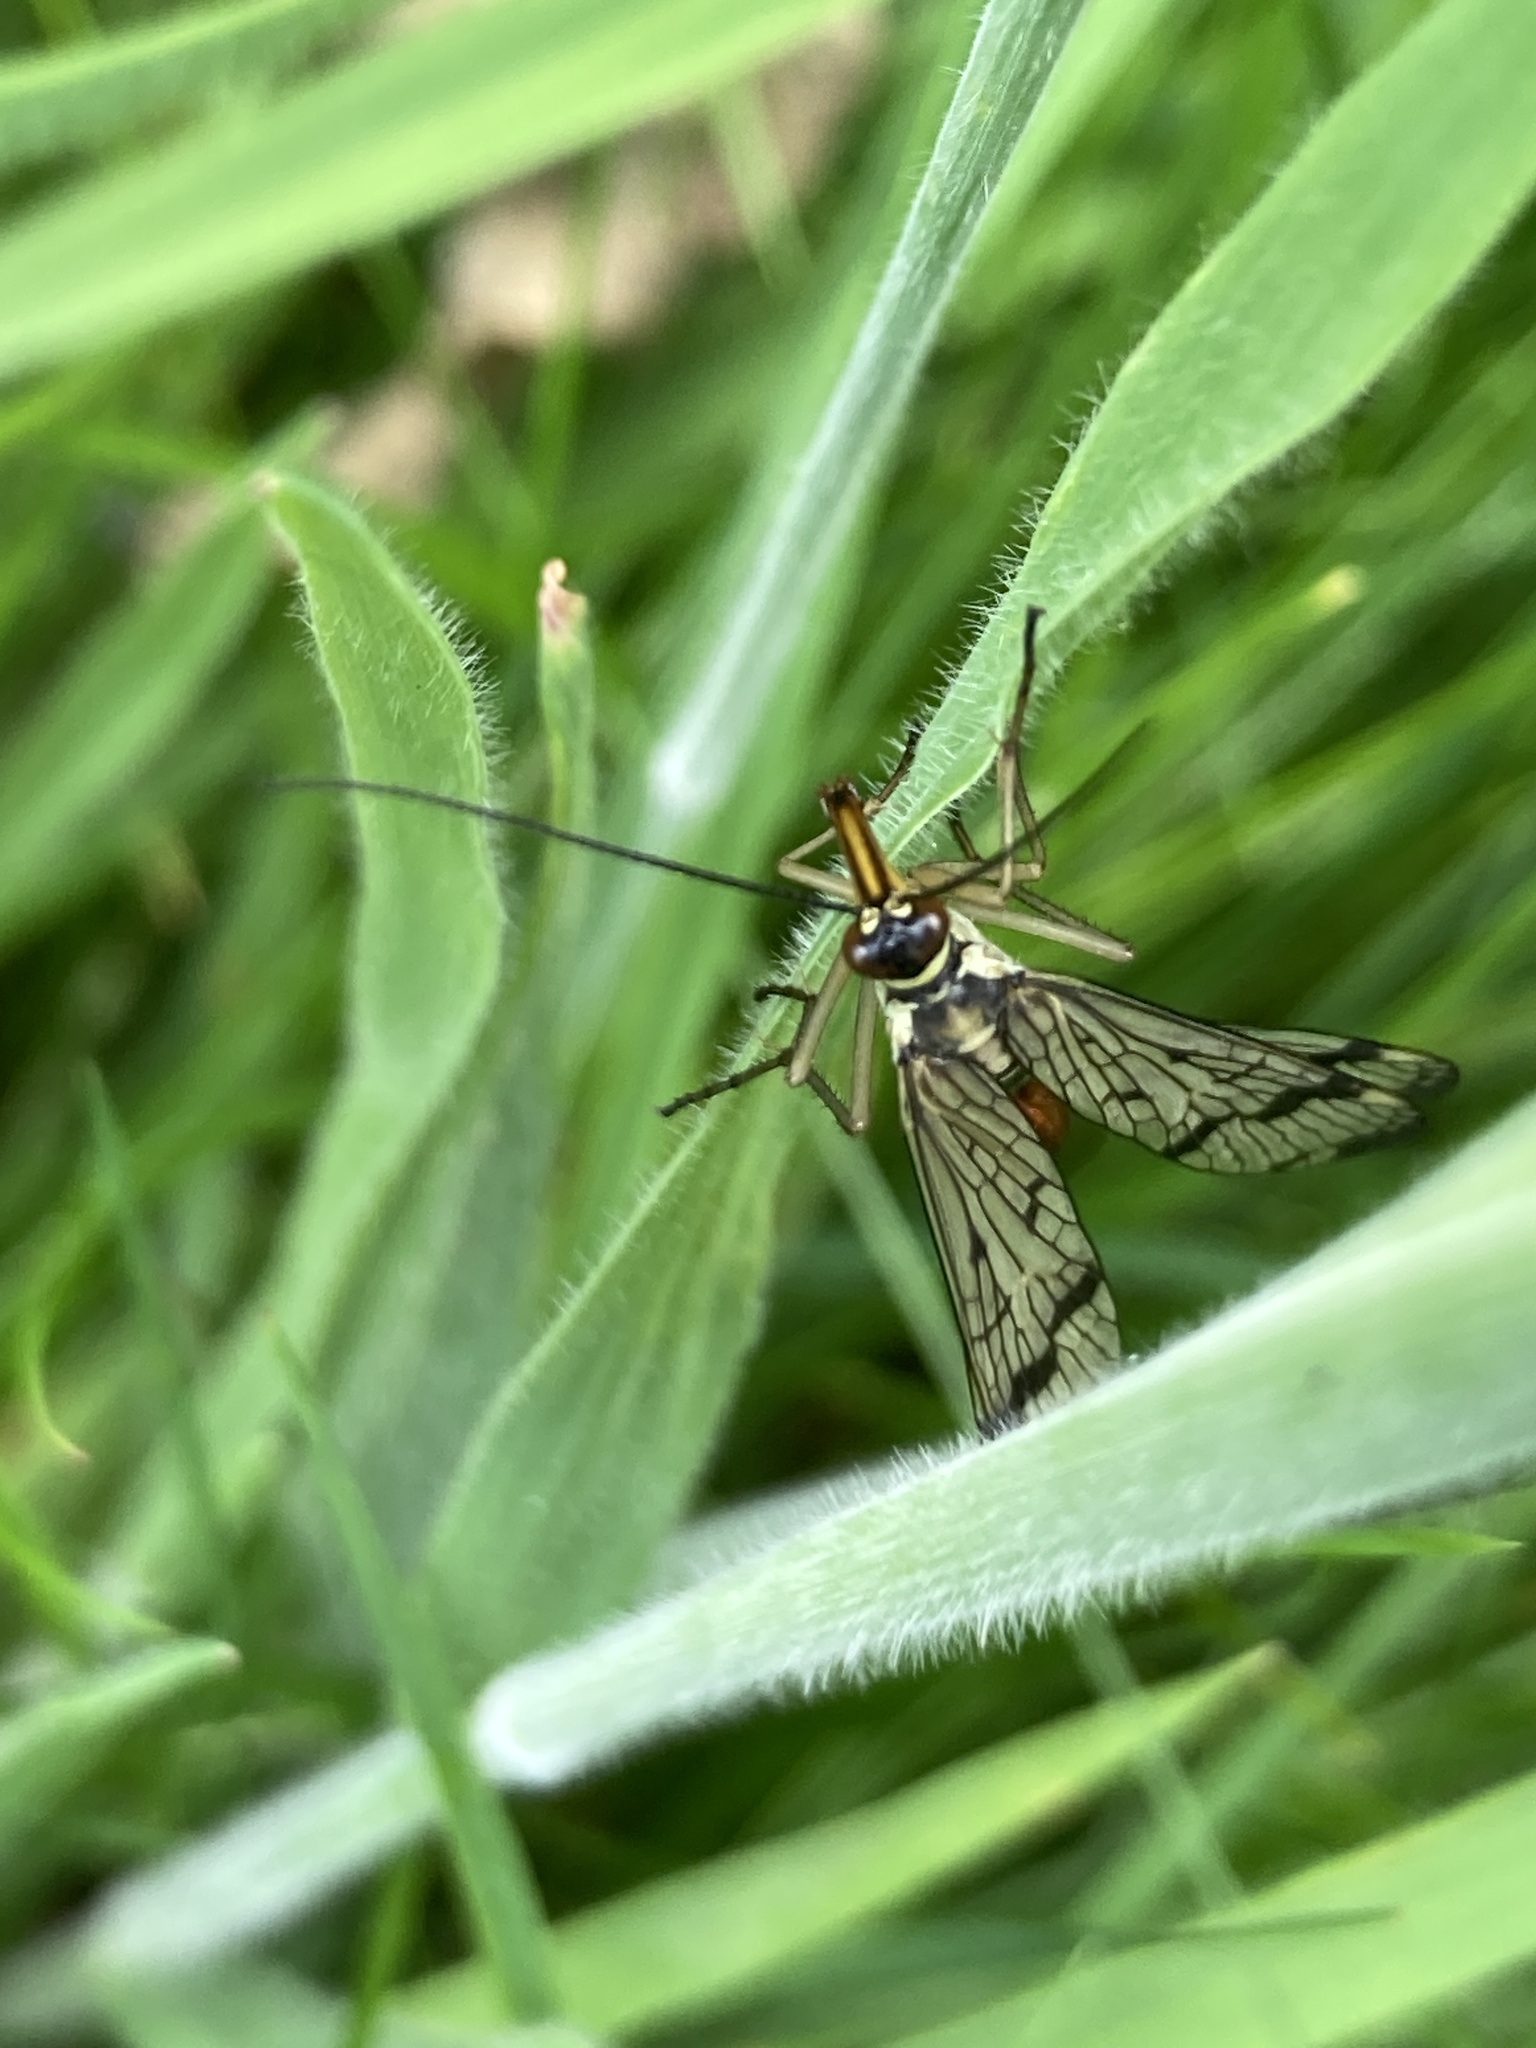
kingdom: Animalia
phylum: Arthropoda
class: Insecta
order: Mecoptera
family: Panorpidae
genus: Panorpa
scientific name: Panorpa communis
